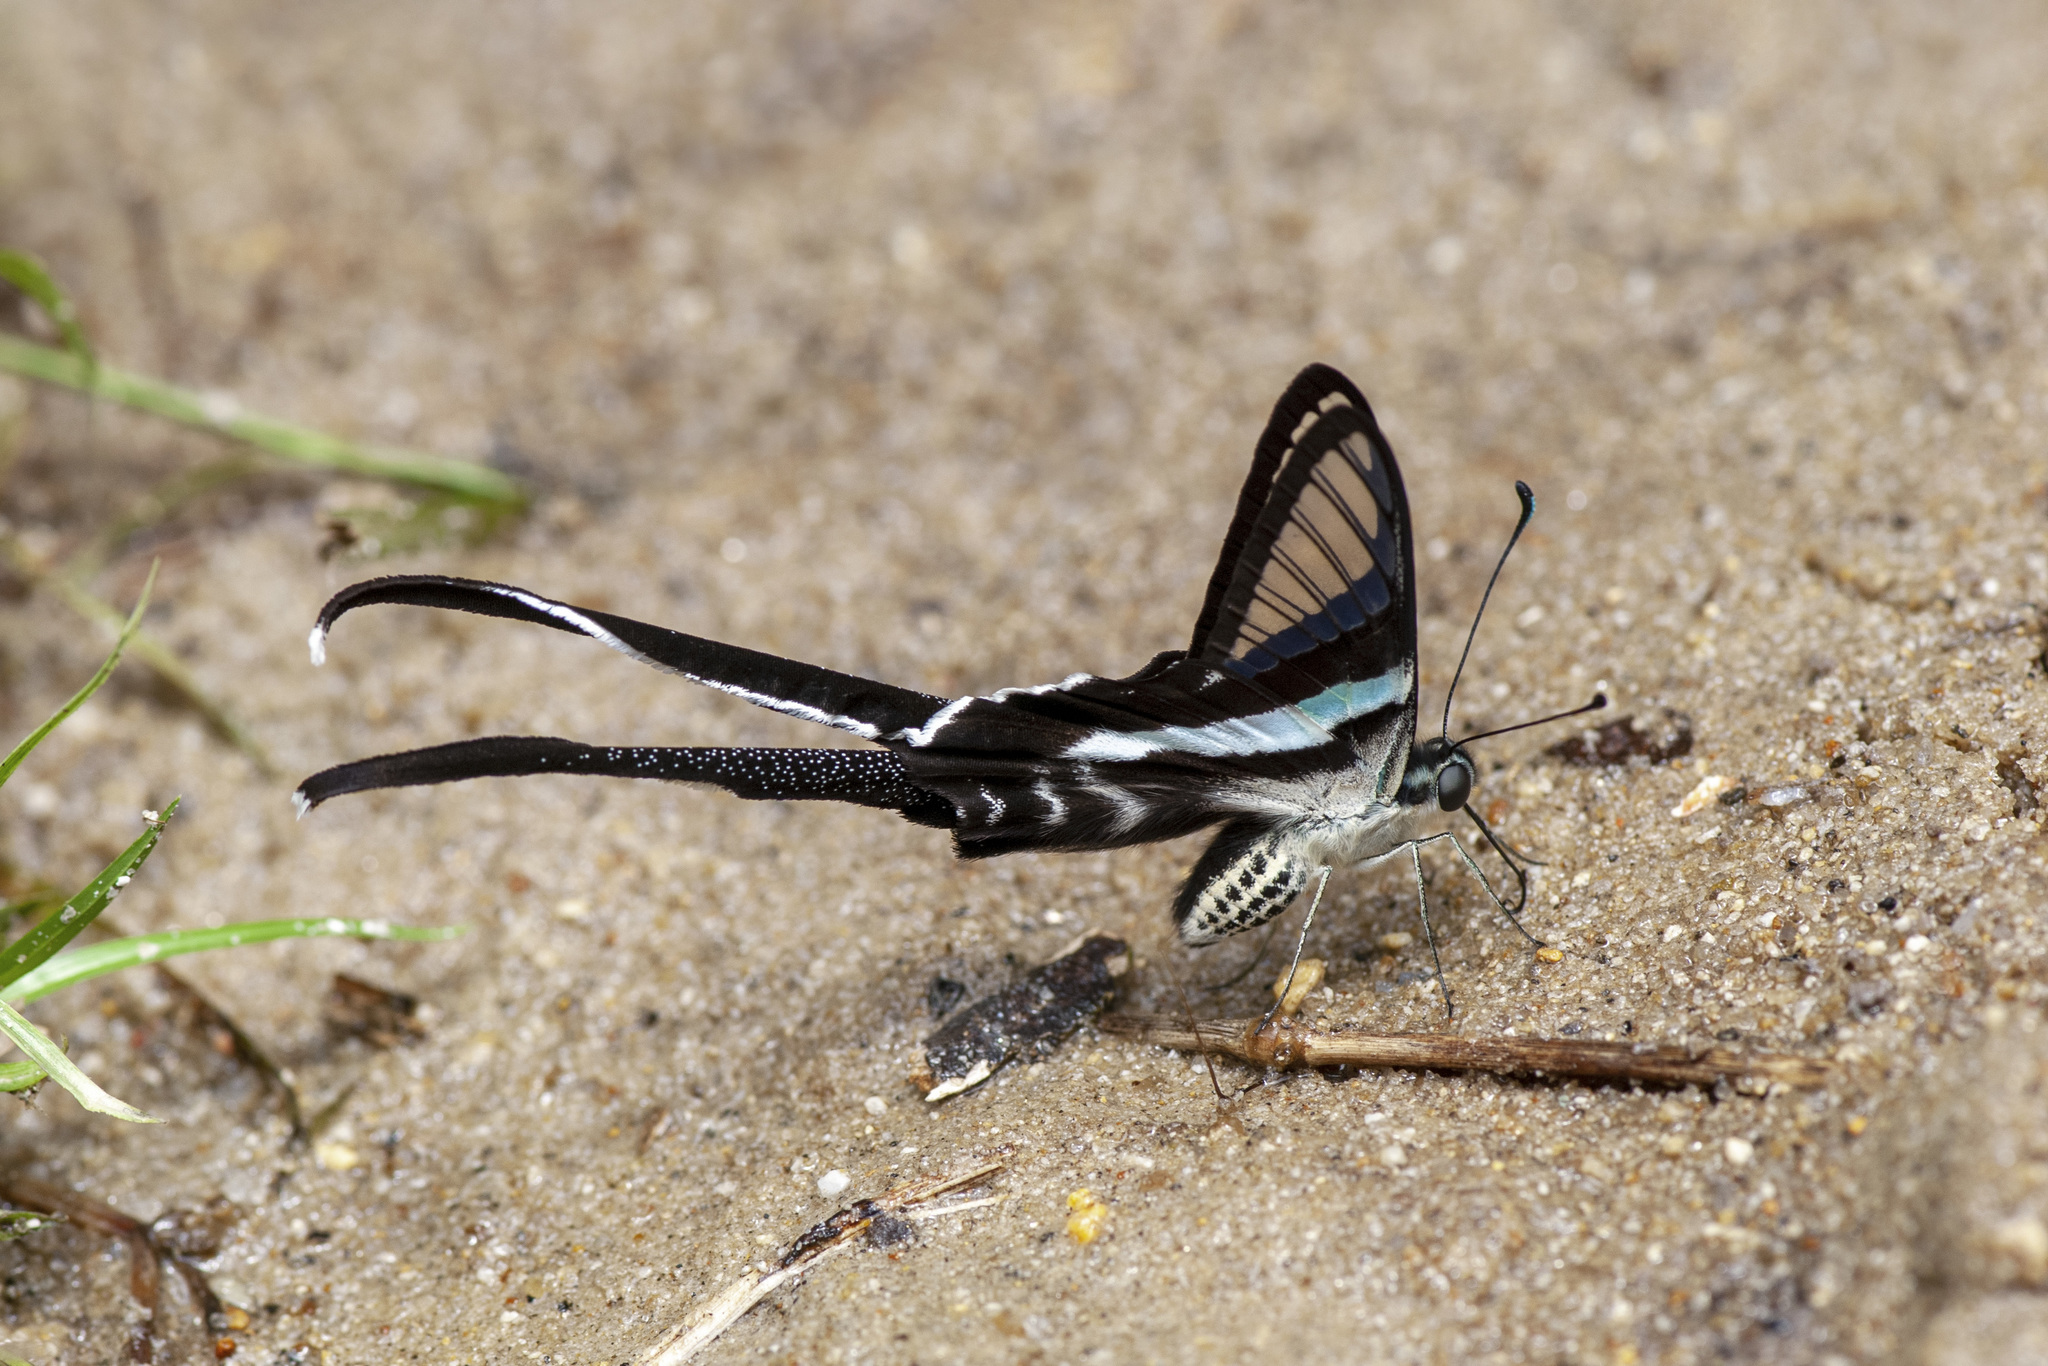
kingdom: Animalia
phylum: Arthropoda
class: Insecta
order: Lepidoptera
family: Papilionidae
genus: Lamproptera
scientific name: Lamproptera meges
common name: Green dragontail
